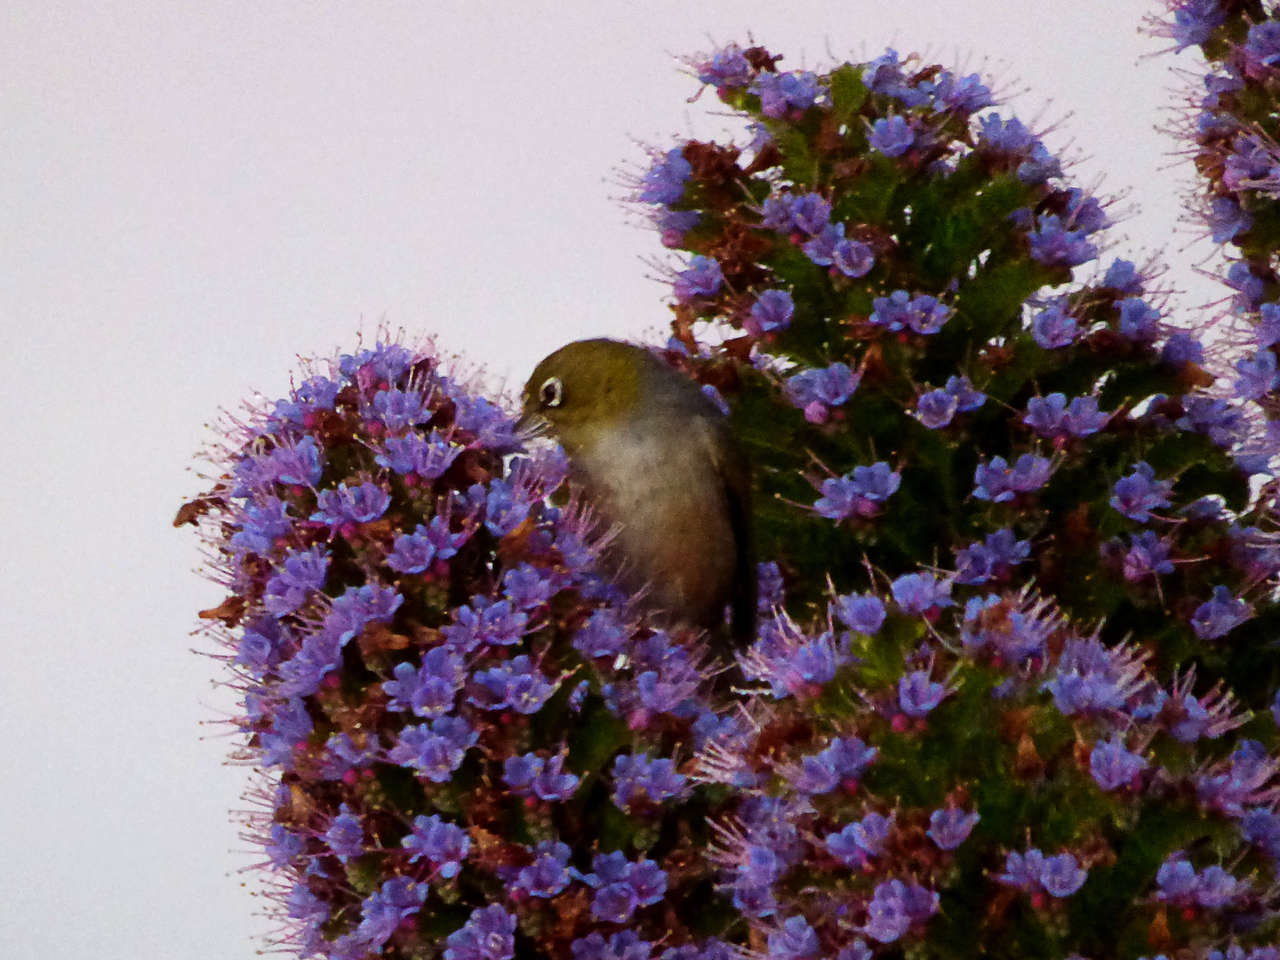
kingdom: Animalia
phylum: Chordata
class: Aves
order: Passeriformes
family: Zosteropidae
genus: Zosterops
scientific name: Zosterops lateralis
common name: Silvereye
